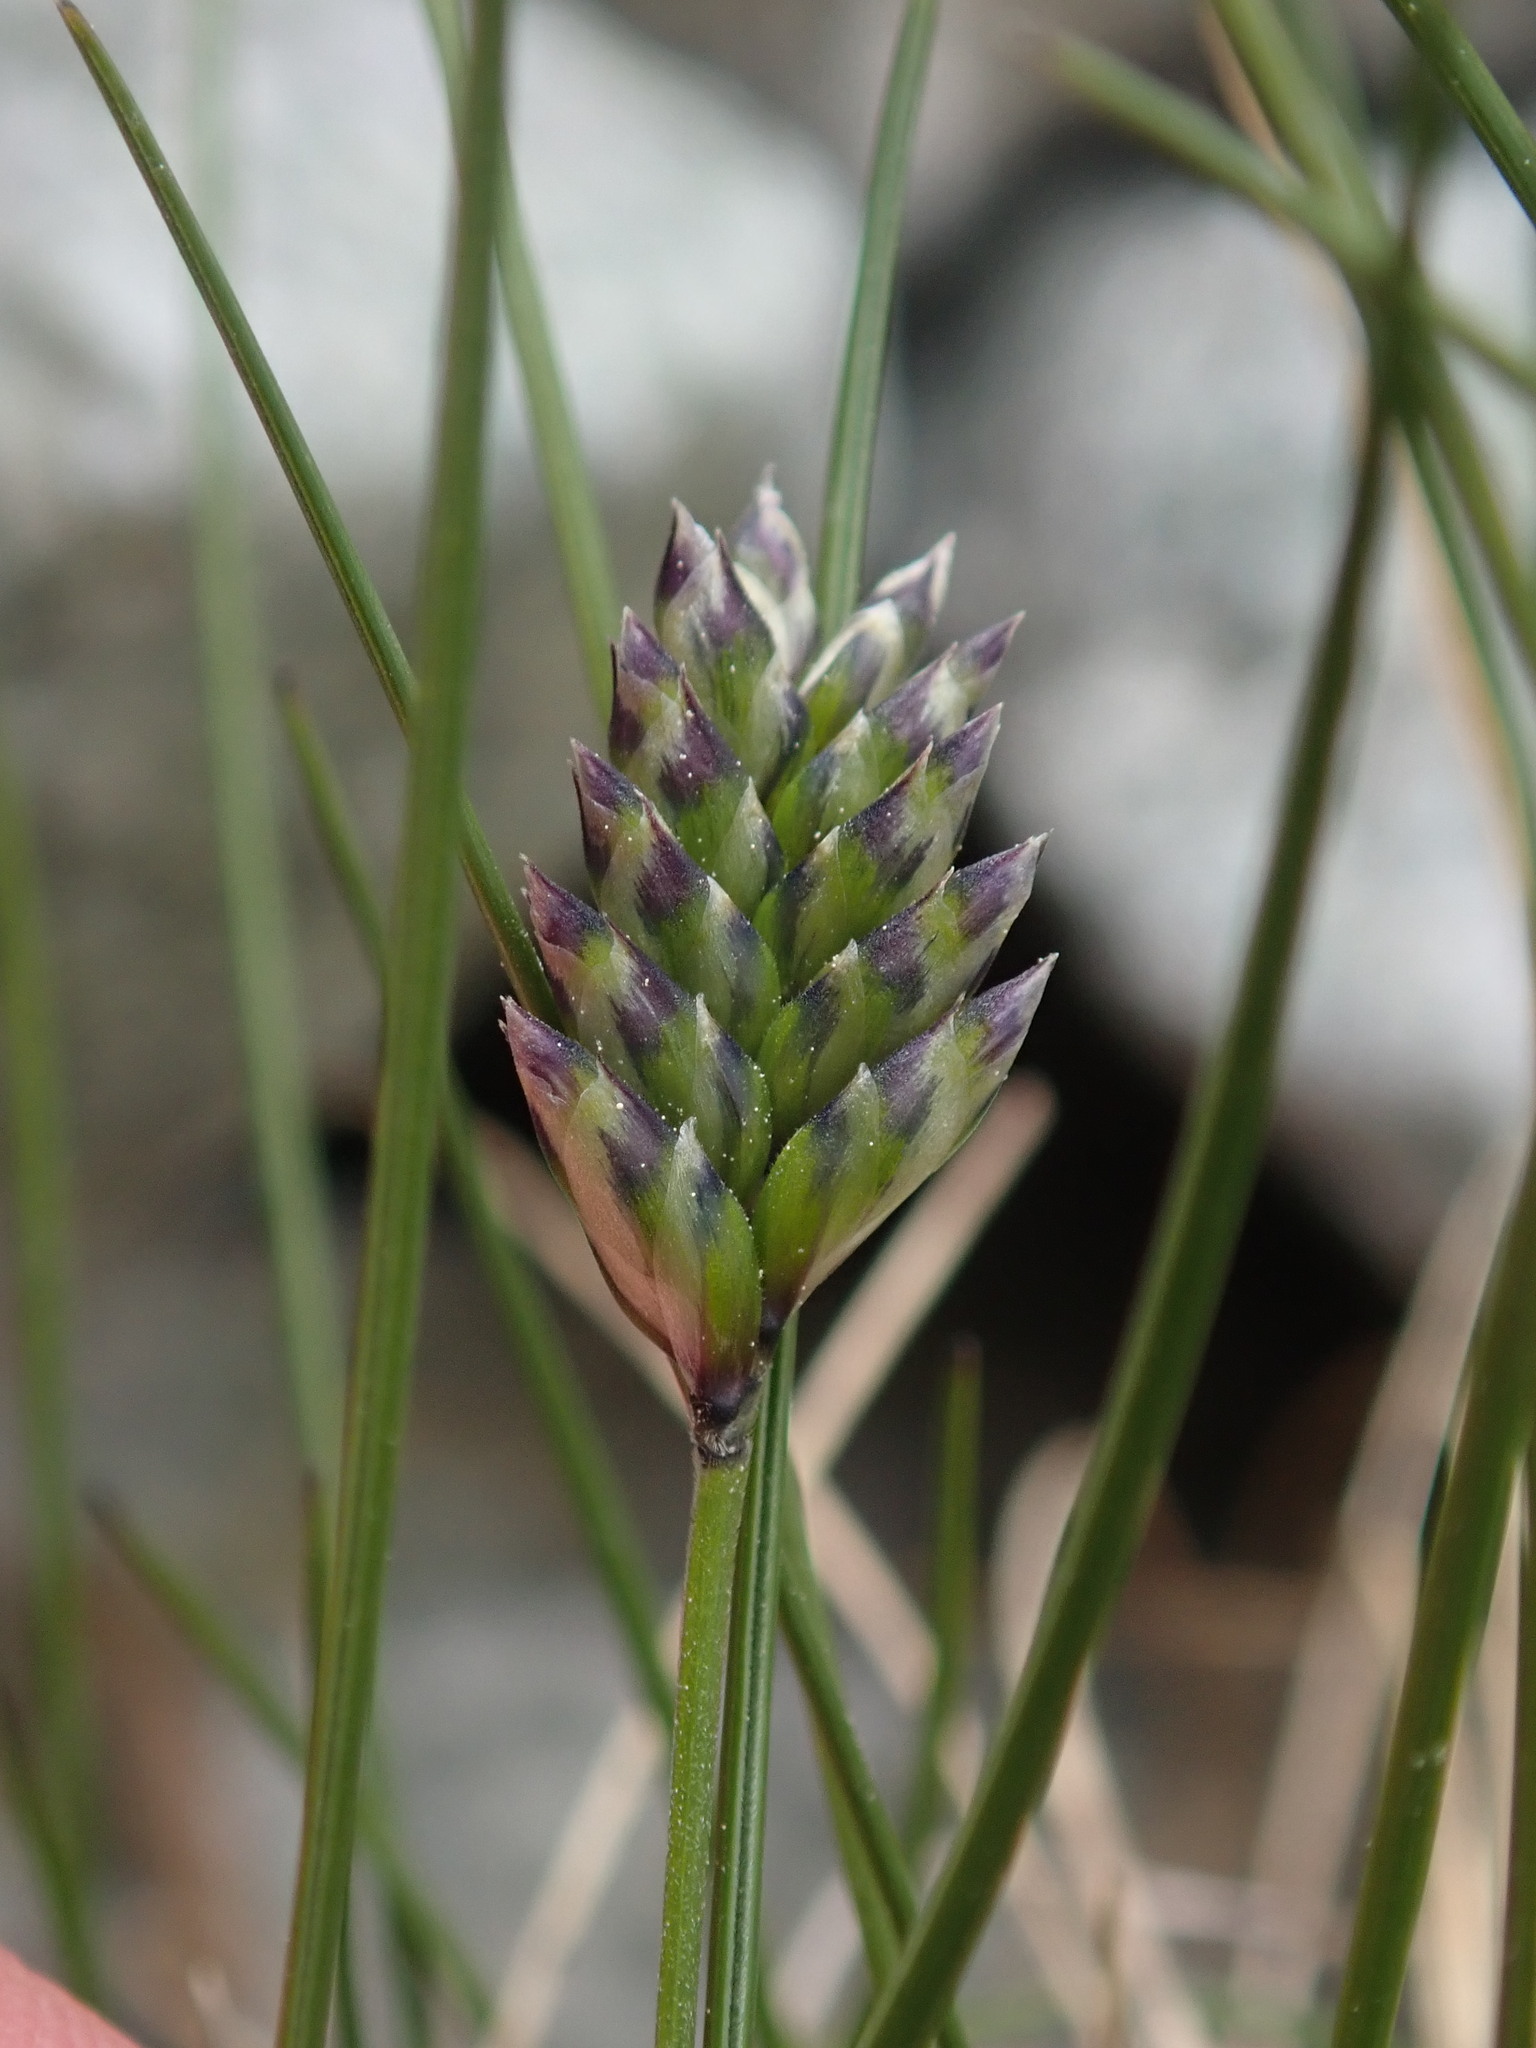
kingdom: Plantae
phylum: Tracheophyta
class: Liliopsida
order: Poales
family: Poaceae
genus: Oreochloa
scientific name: Oreochloa disticha
